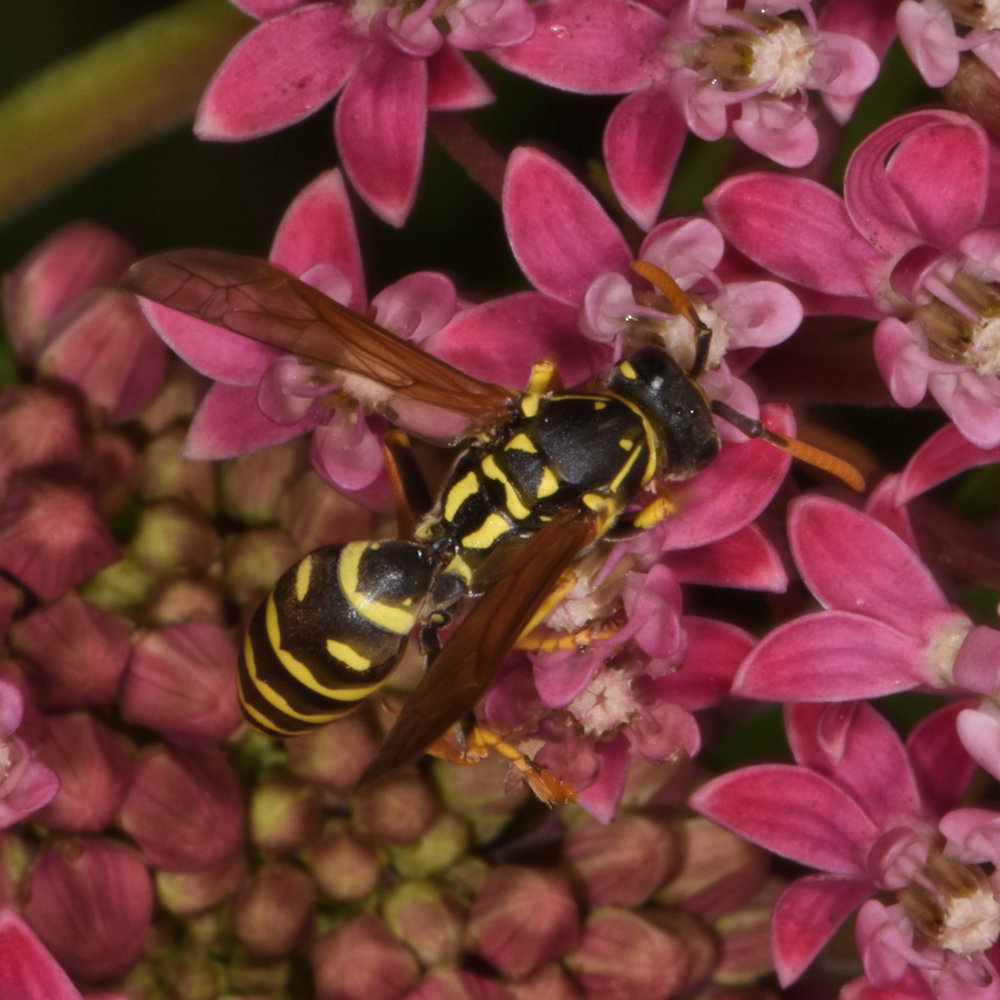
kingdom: Animalia
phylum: Arthropoda
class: Insecta
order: Hymenoptera
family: Eumenidae
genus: Polistes
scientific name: Polistes dominula
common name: Paper wasp
